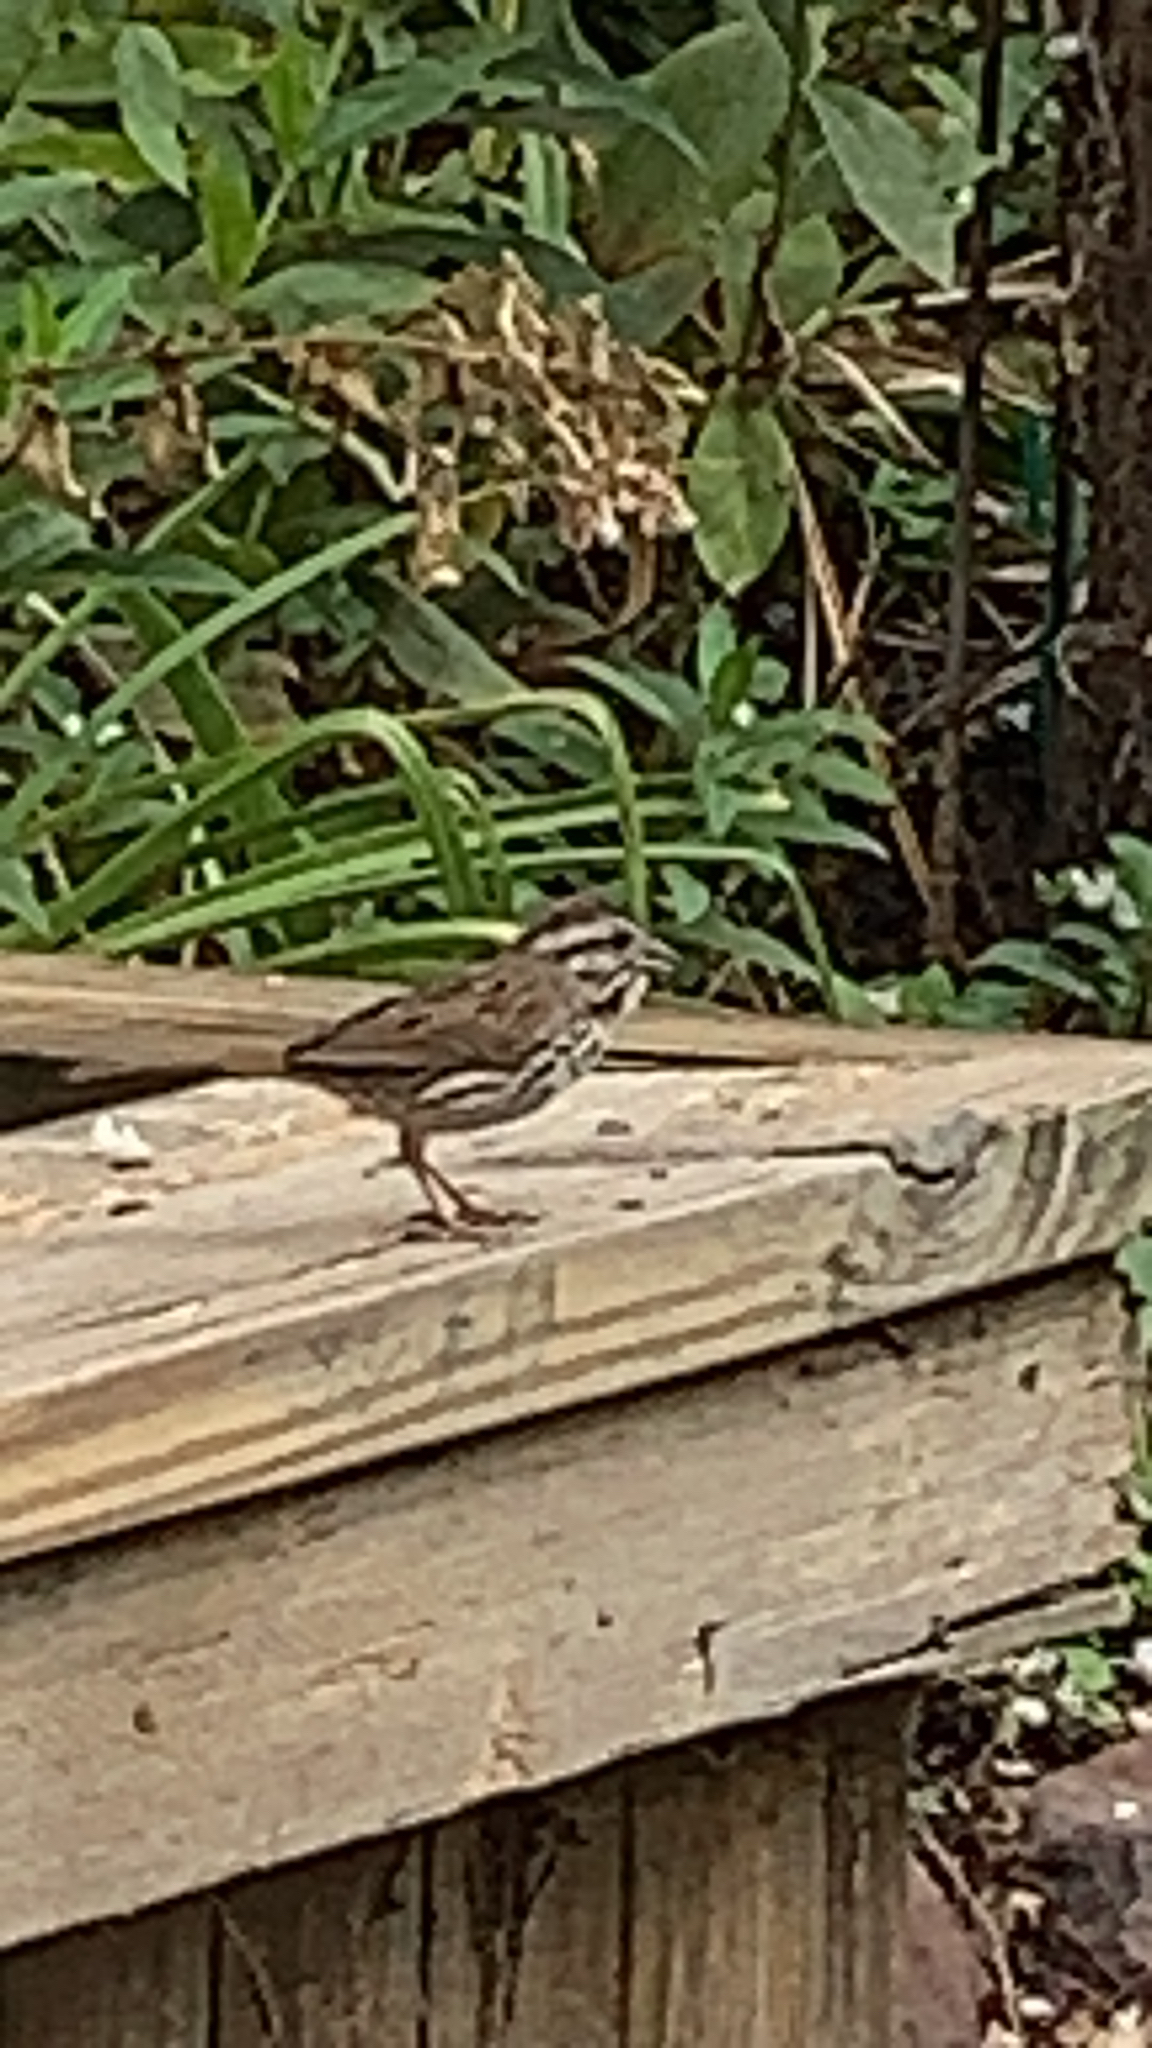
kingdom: Animalia
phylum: Chordata
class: Aves
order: Passeriformes
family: Passerellidae
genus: Melospiza
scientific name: Melospiza melodia
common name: Song sparrow
